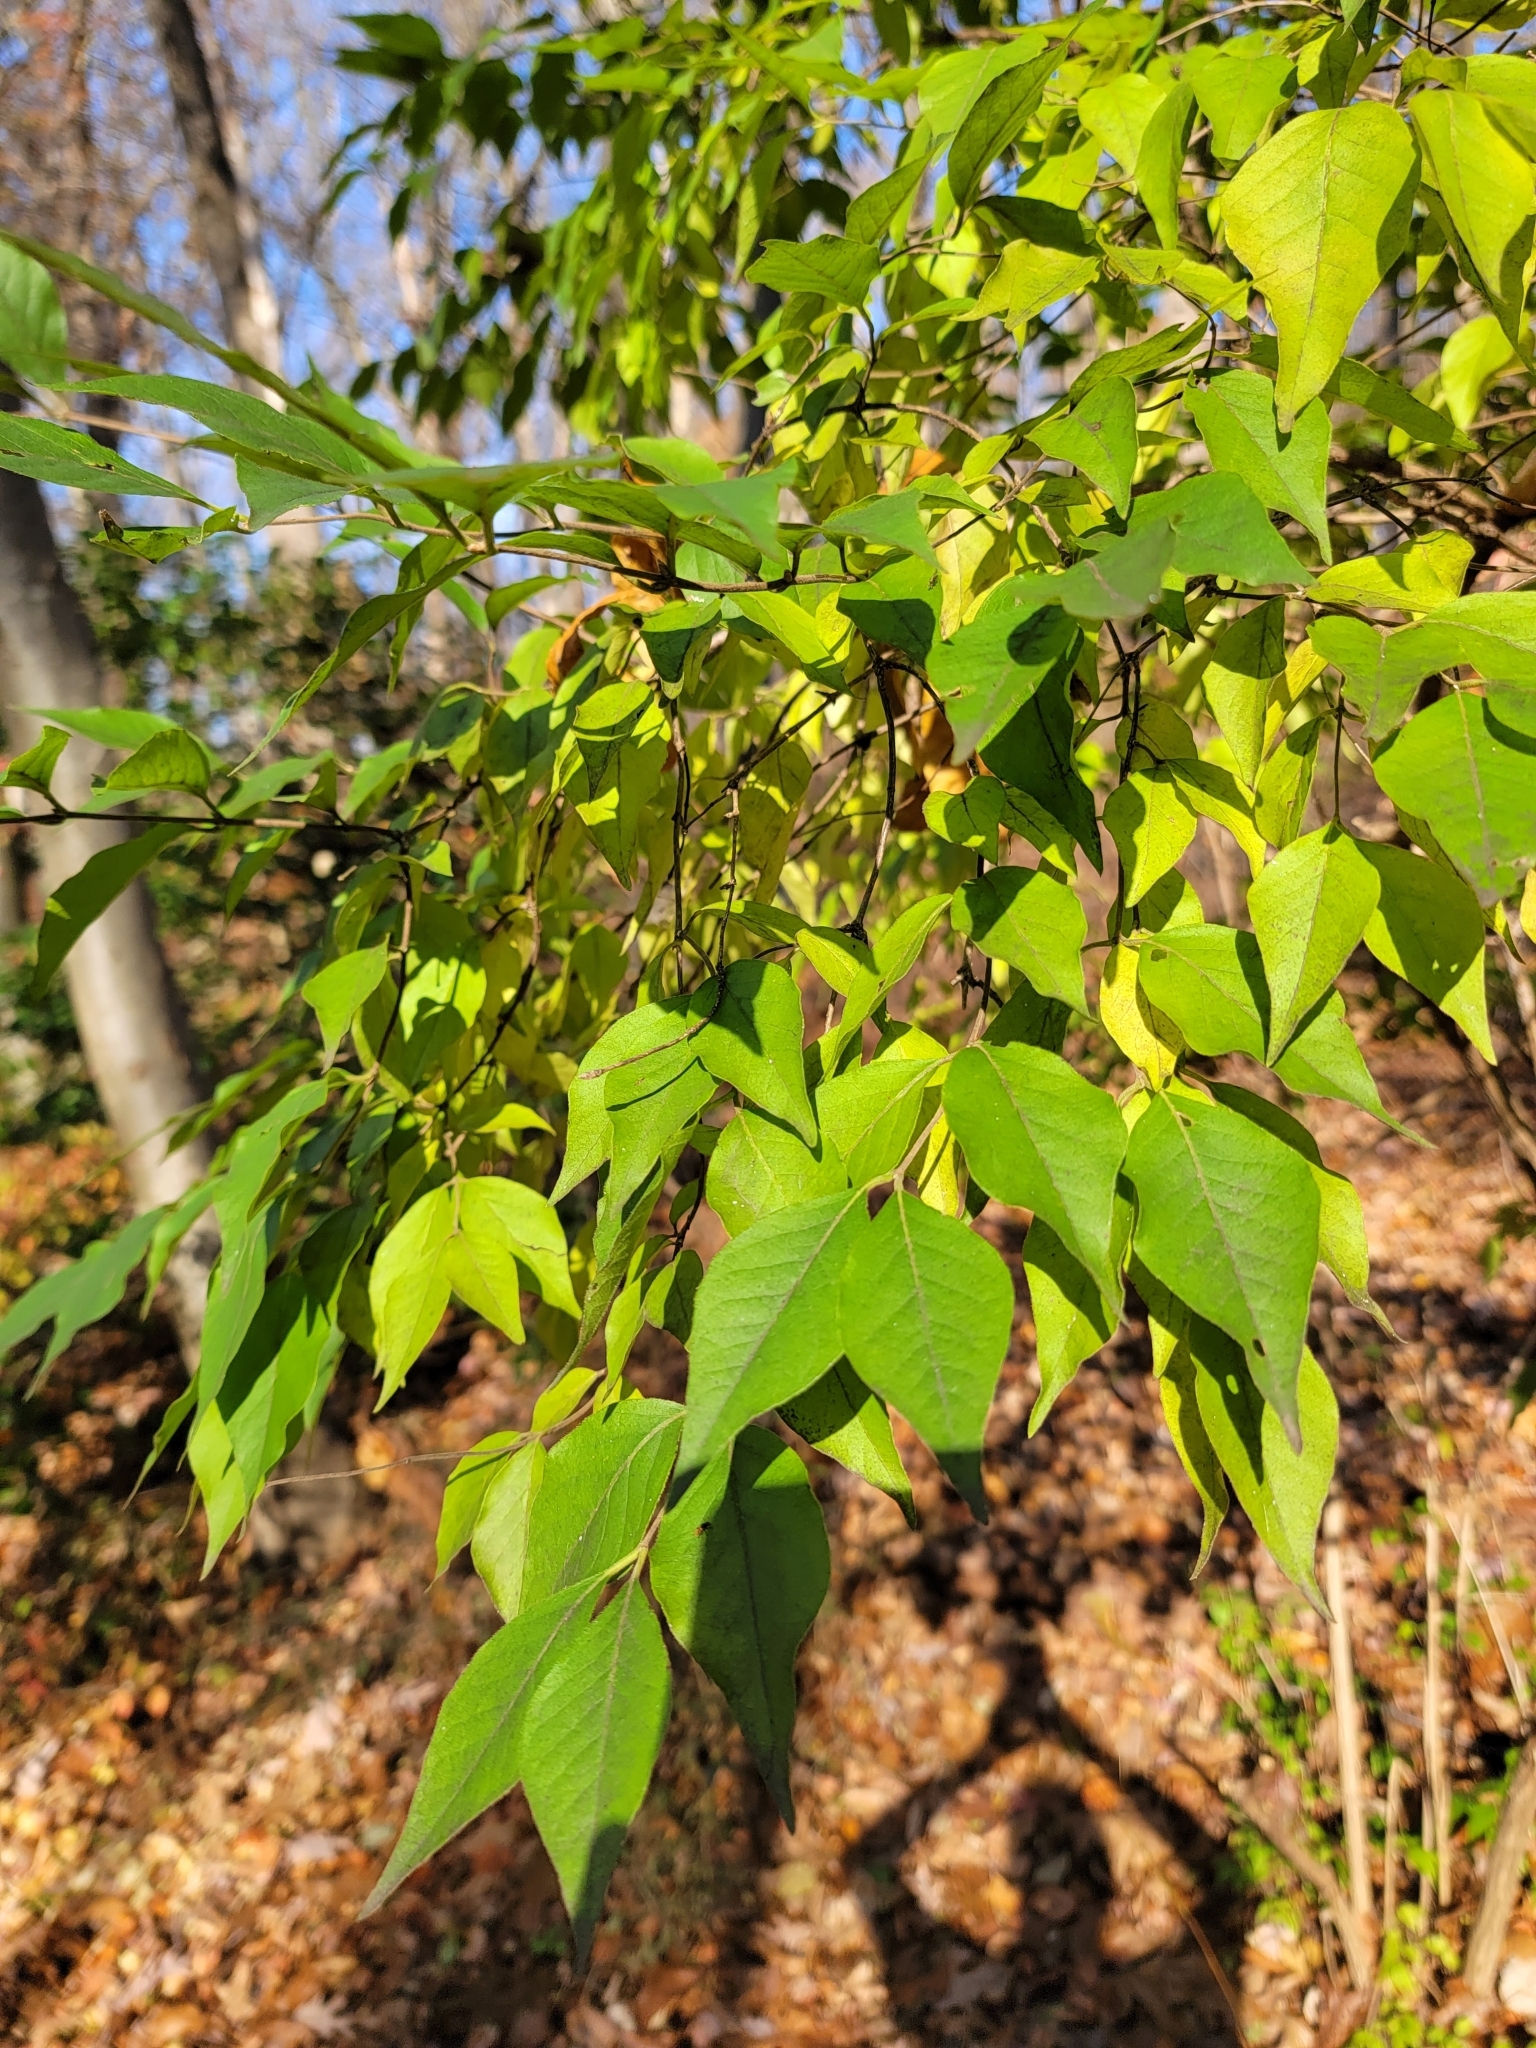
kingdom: Plantae
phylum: Tracheophyta
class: Magnoliopsida
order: Dipsacales
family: Caprifoliaceae
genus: Lonicera
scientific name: Lonicera maackii
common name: Amur honeysuckle
